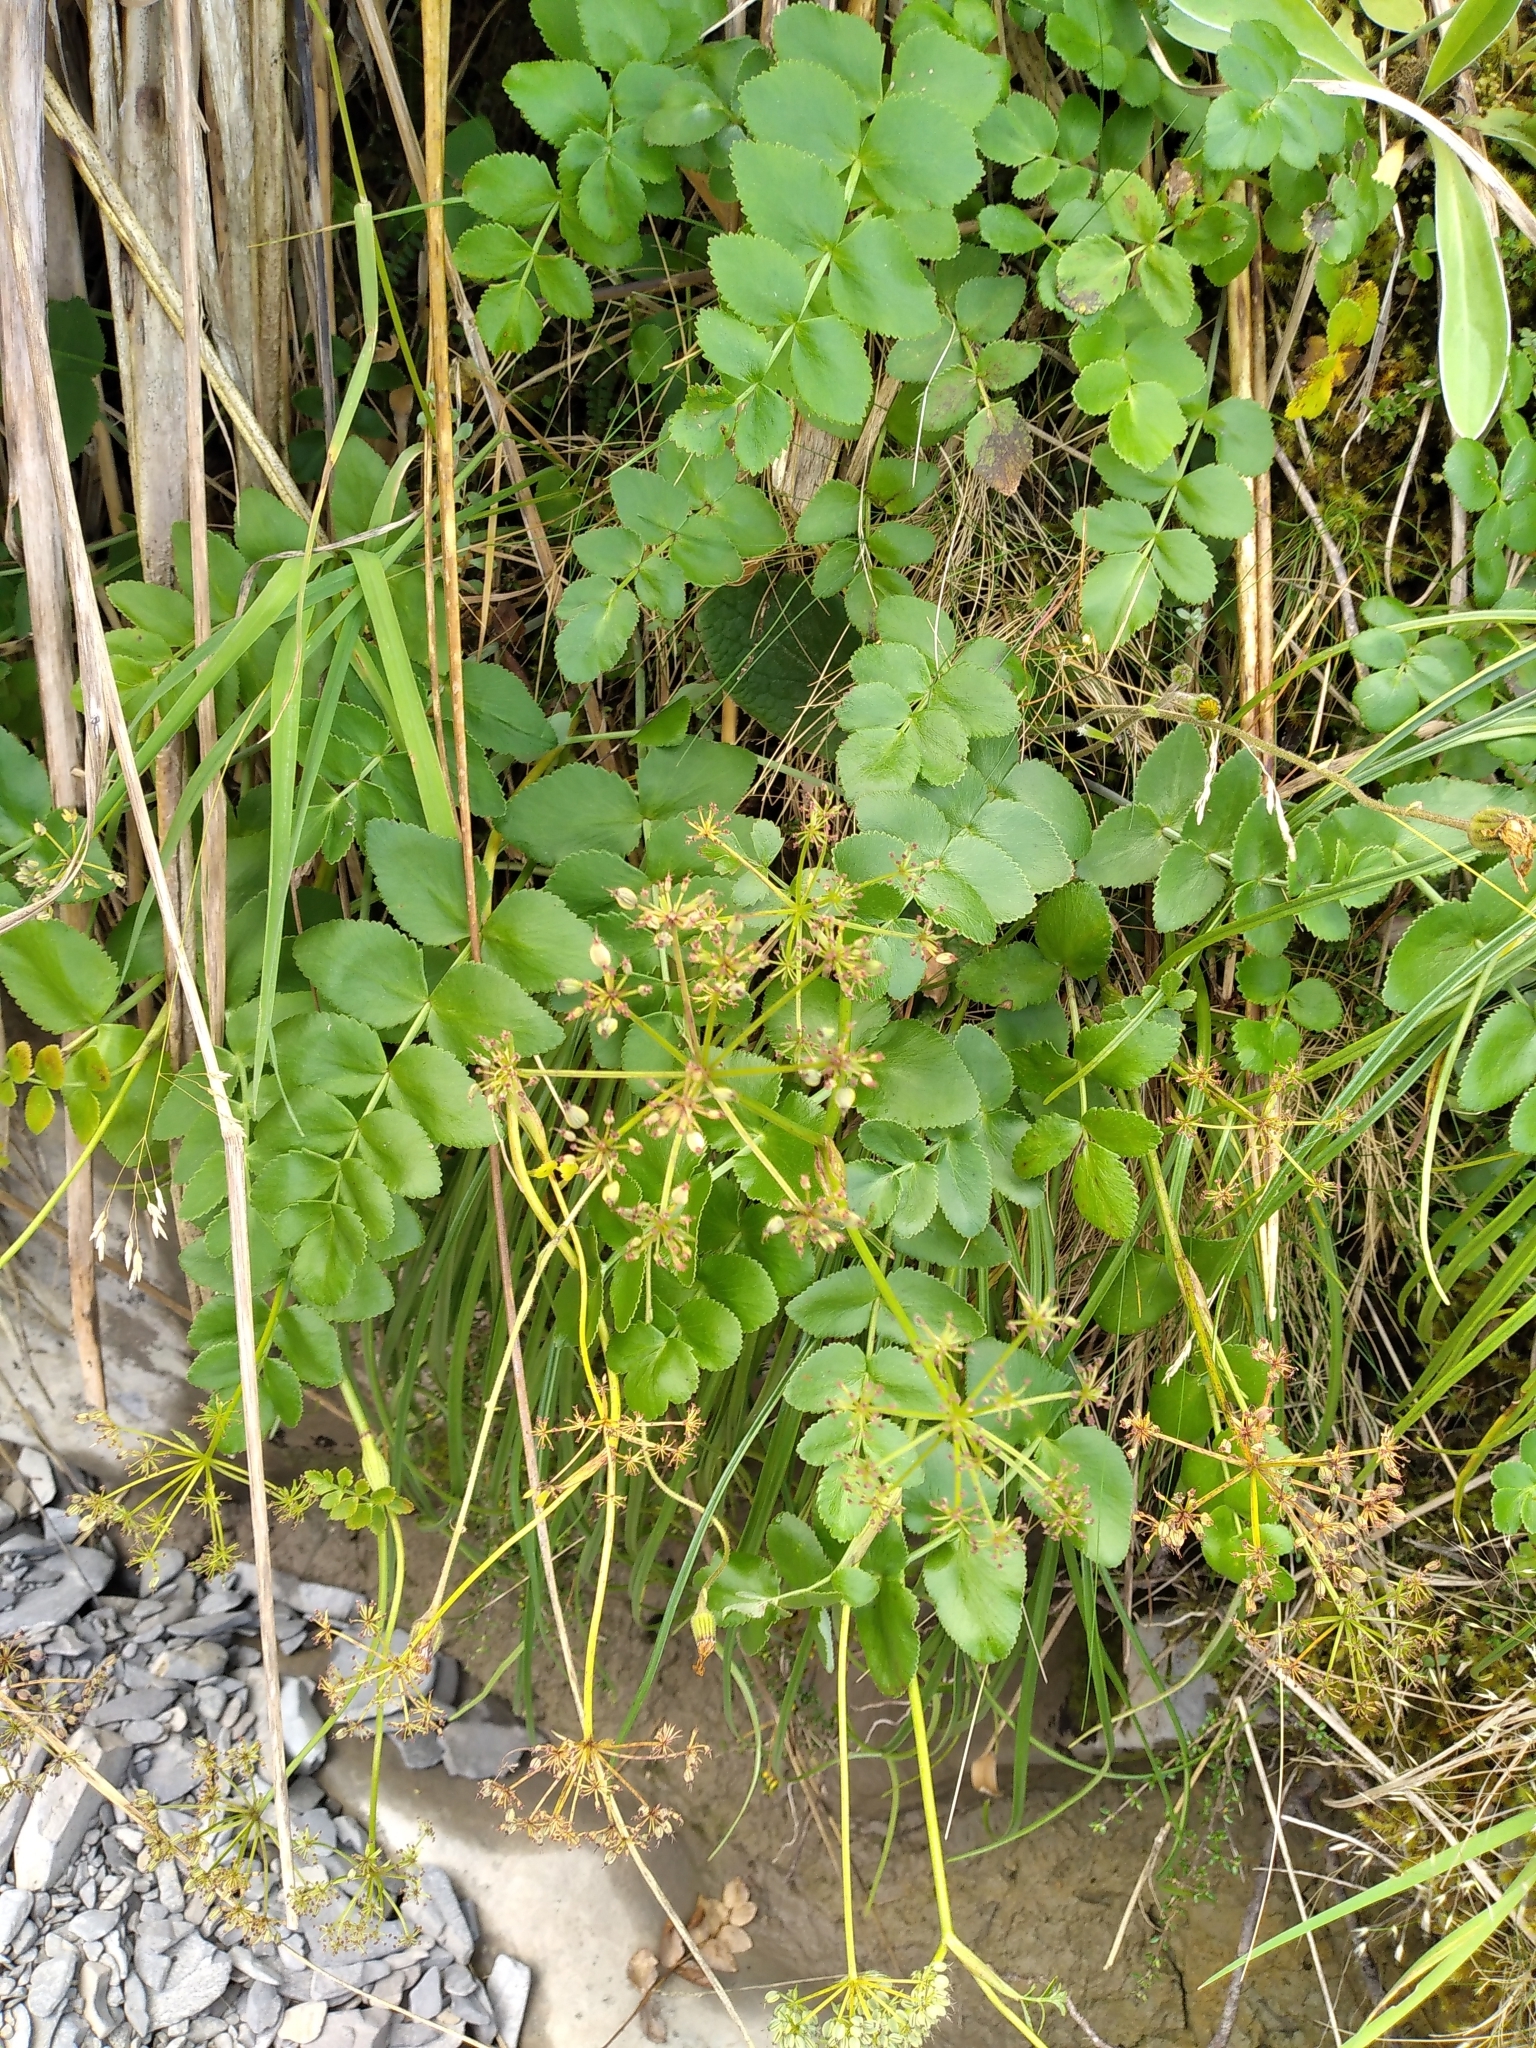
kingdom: Plantae
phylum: Tracheophyta
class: Magnoliopsida
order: Apiales
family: Apiaceae
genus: Gingidia
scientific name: Gingidia montana
